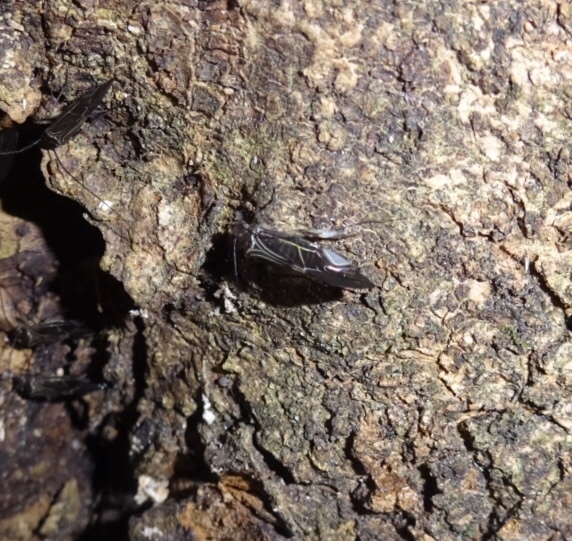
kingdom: Animalia
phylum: Arthropoda
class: Insecta
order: Psocodea
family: Psocidae
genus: Cerastipsocus
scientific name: Cerastipsocus venosus
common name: Tree cattle
